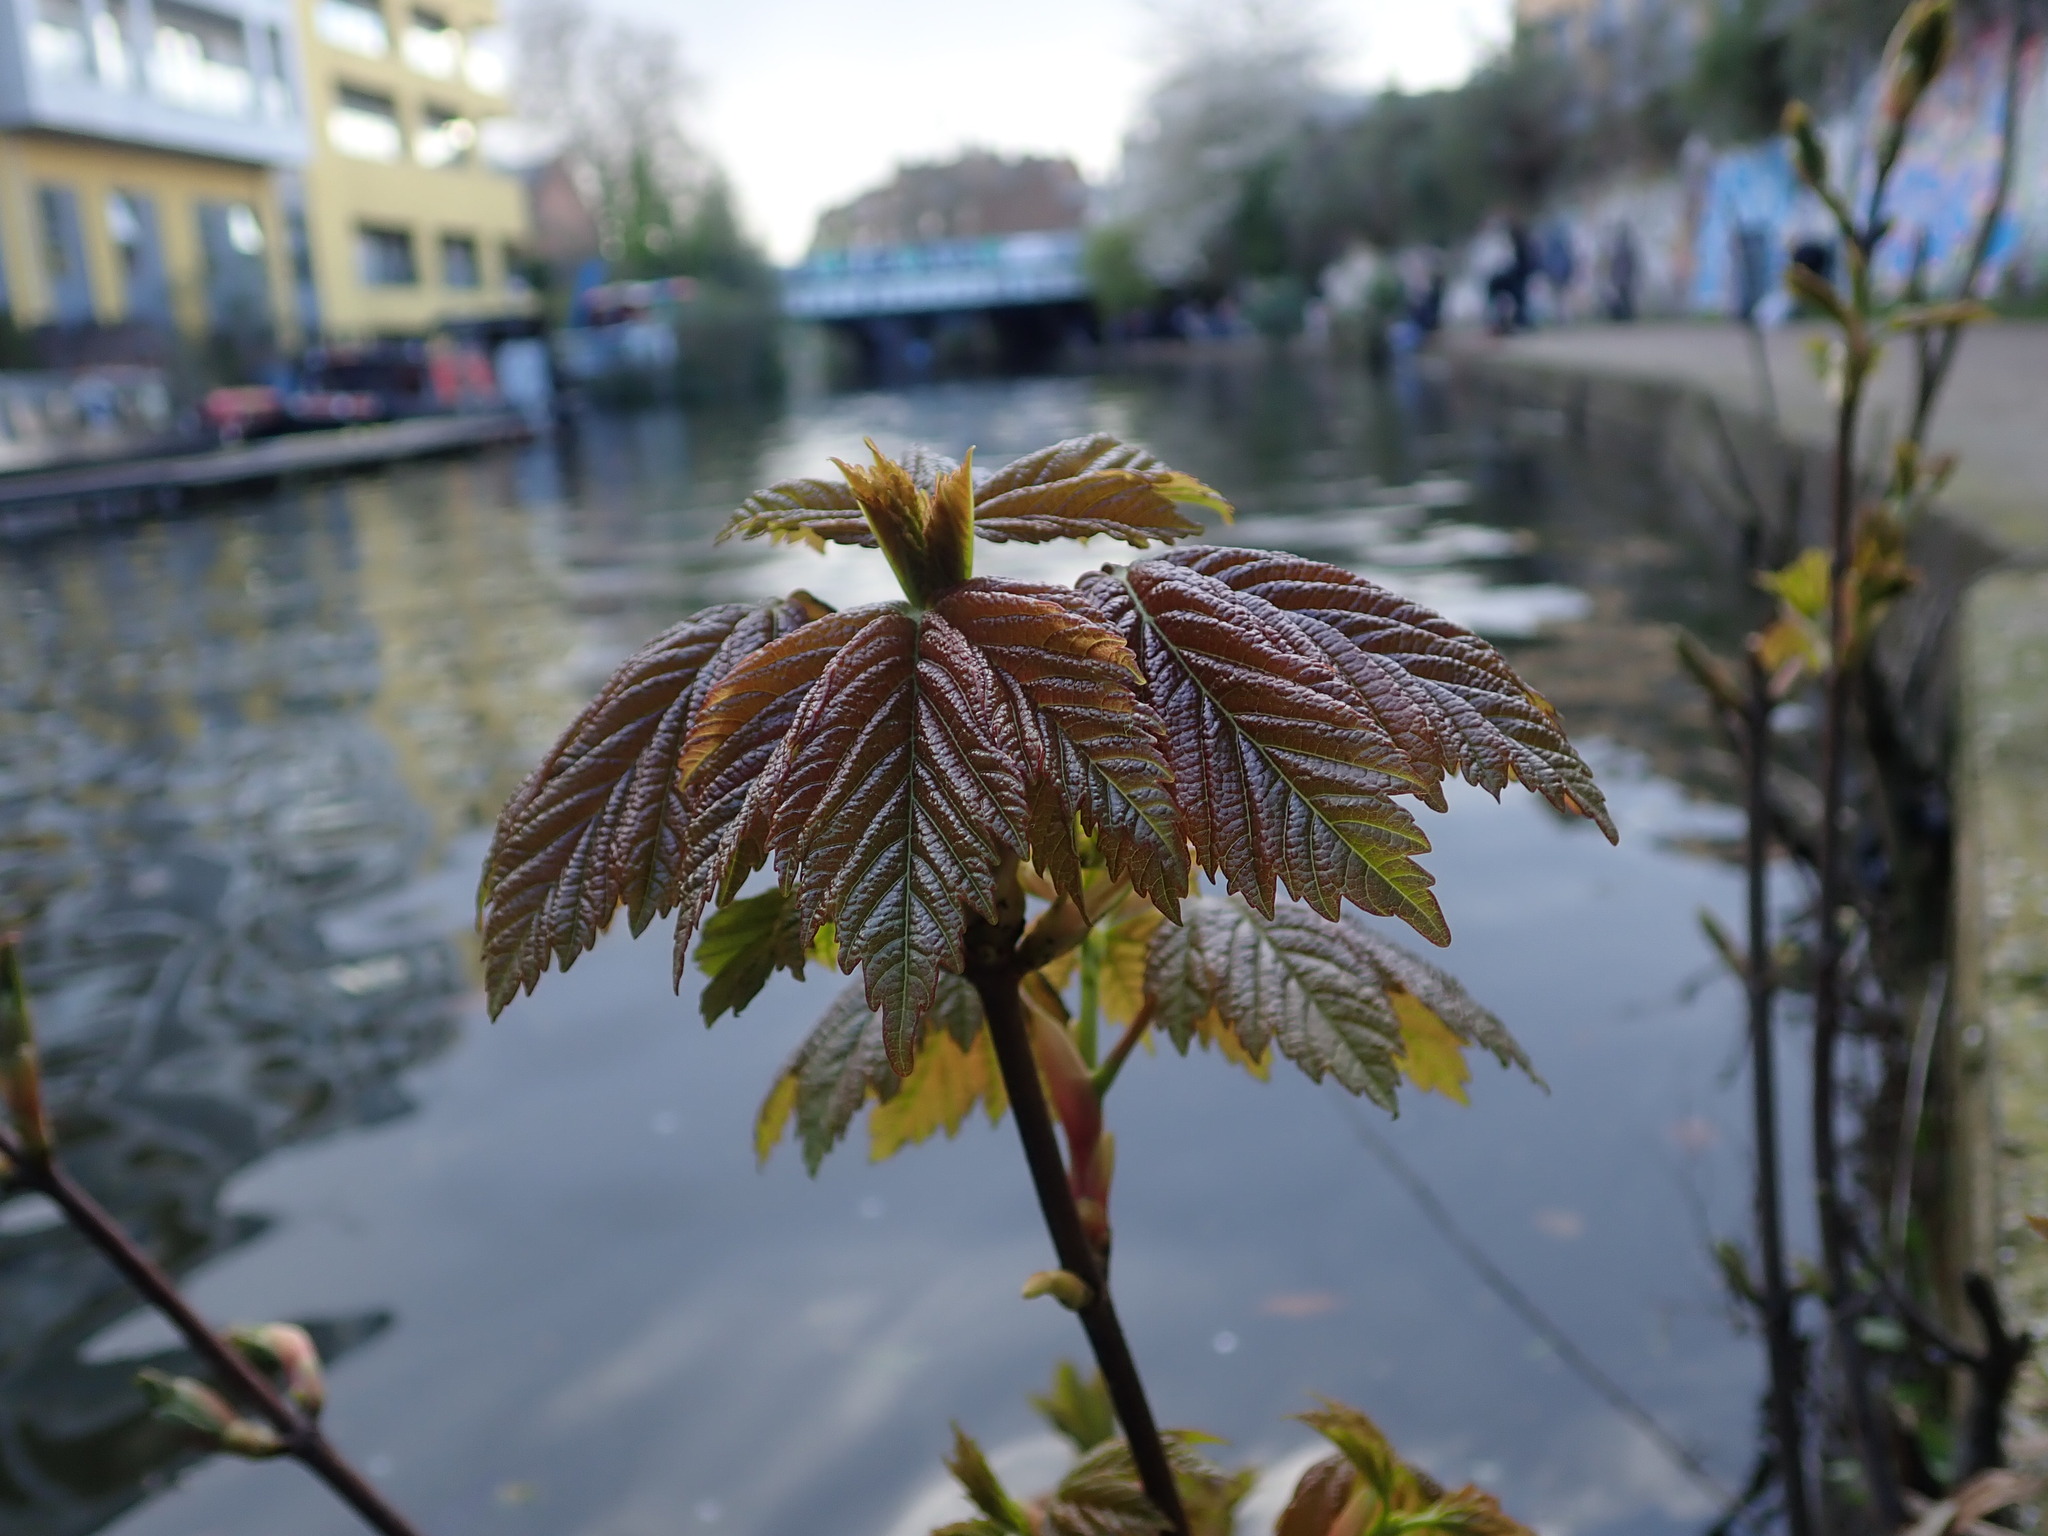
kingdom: Plantae
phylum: Tracheophyta
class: Magnoliopsida
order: Sapindales
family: Sapindaceae
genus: Acer
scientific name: Acer pseudoplatanus
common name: Sycamore
